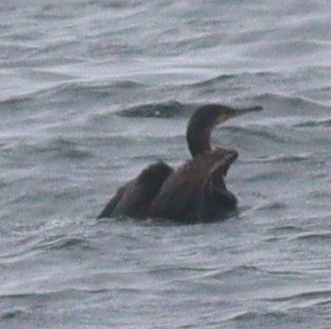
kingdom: Animalia
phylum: Chordata
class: Aves
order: Suliformes
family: Phalacrocoracidae
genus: Phalacrocorax
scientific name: Phalacrocorax carbo
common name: Great cormorant
